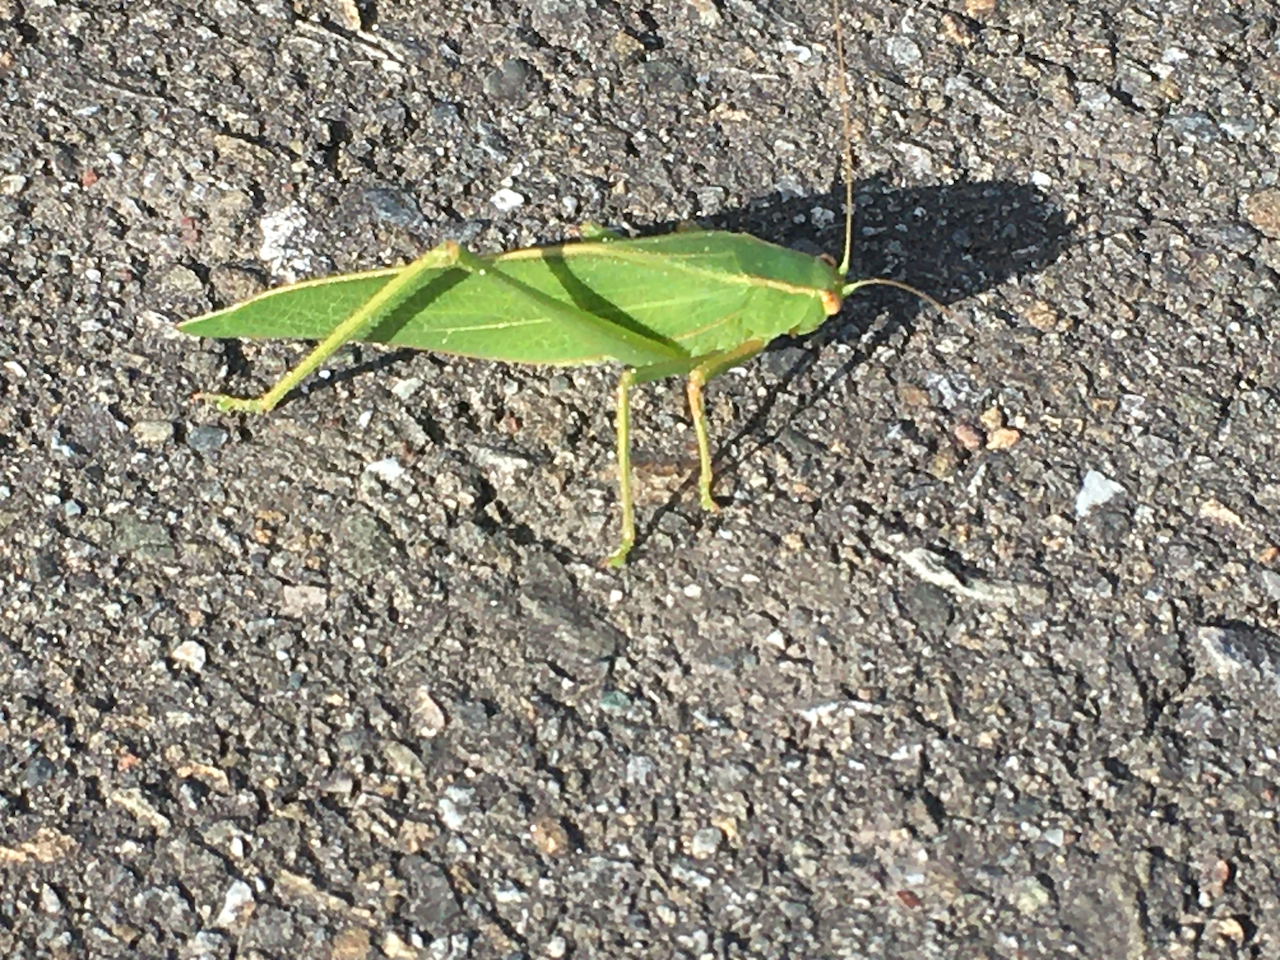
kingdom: Animalia
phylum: Arthropoda
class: Insecta
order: Orthoptera
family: Tettigoniidae
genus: Caedicia
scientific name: Caedicia simplex
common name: Common garden katydid
